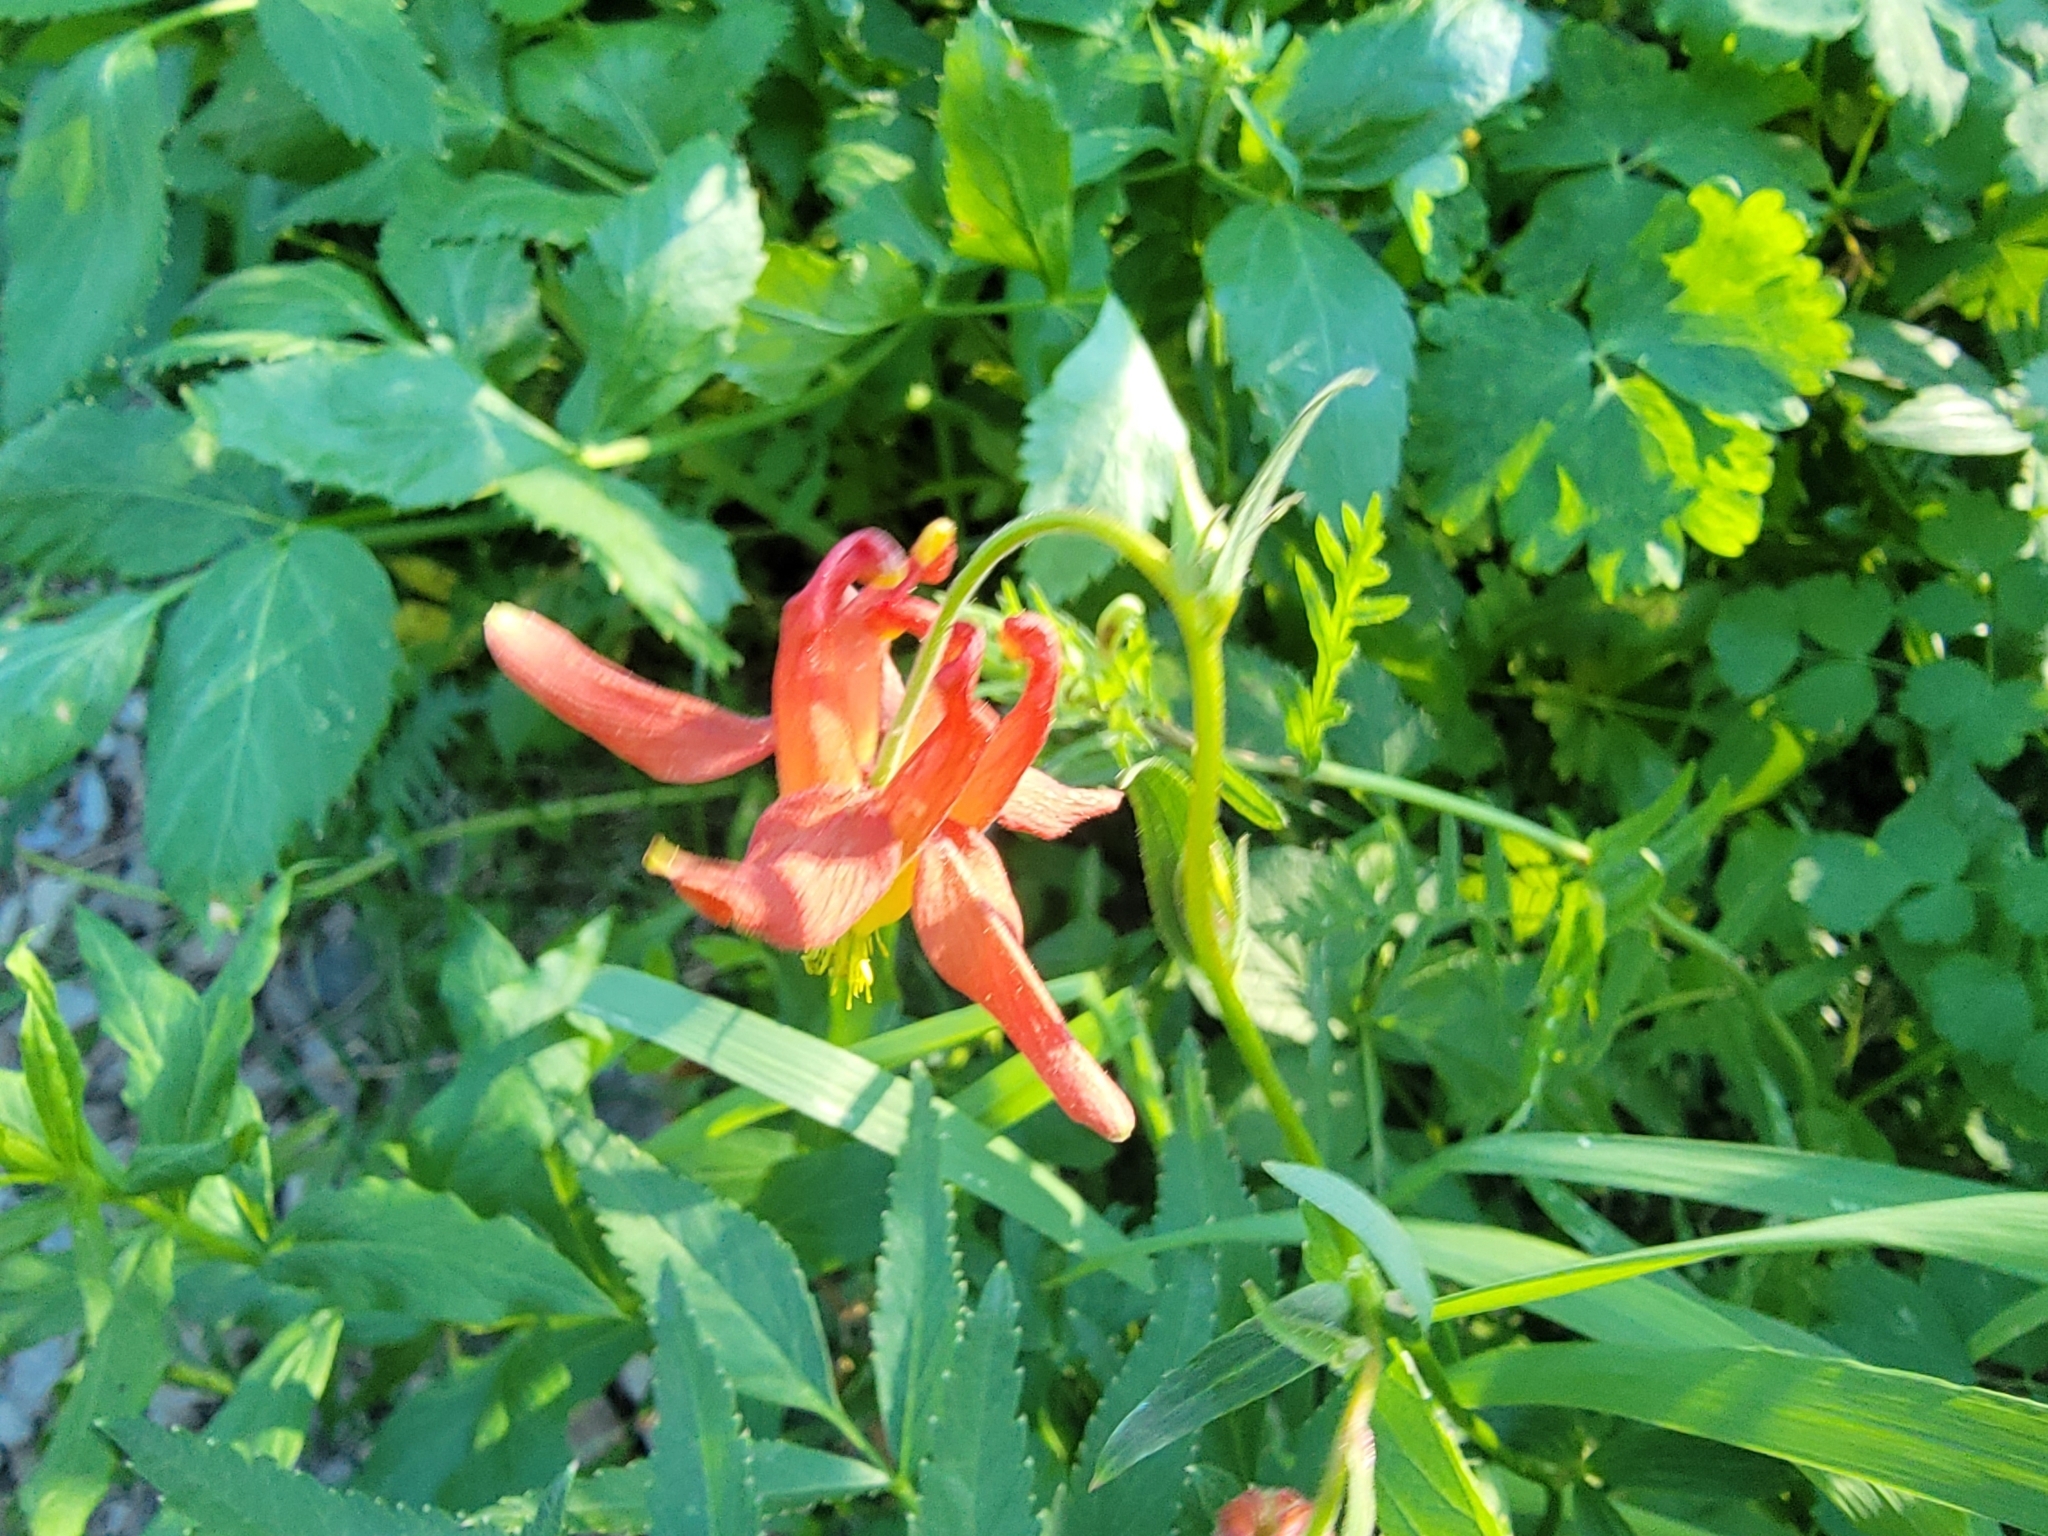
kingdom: Plantae
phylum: Tracheophyta
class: Magnoliopsida
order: Ranunculales
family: Ranunculaceae
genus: Aquilegia
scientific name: Aquilegia formosa
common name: Sitka columbine
